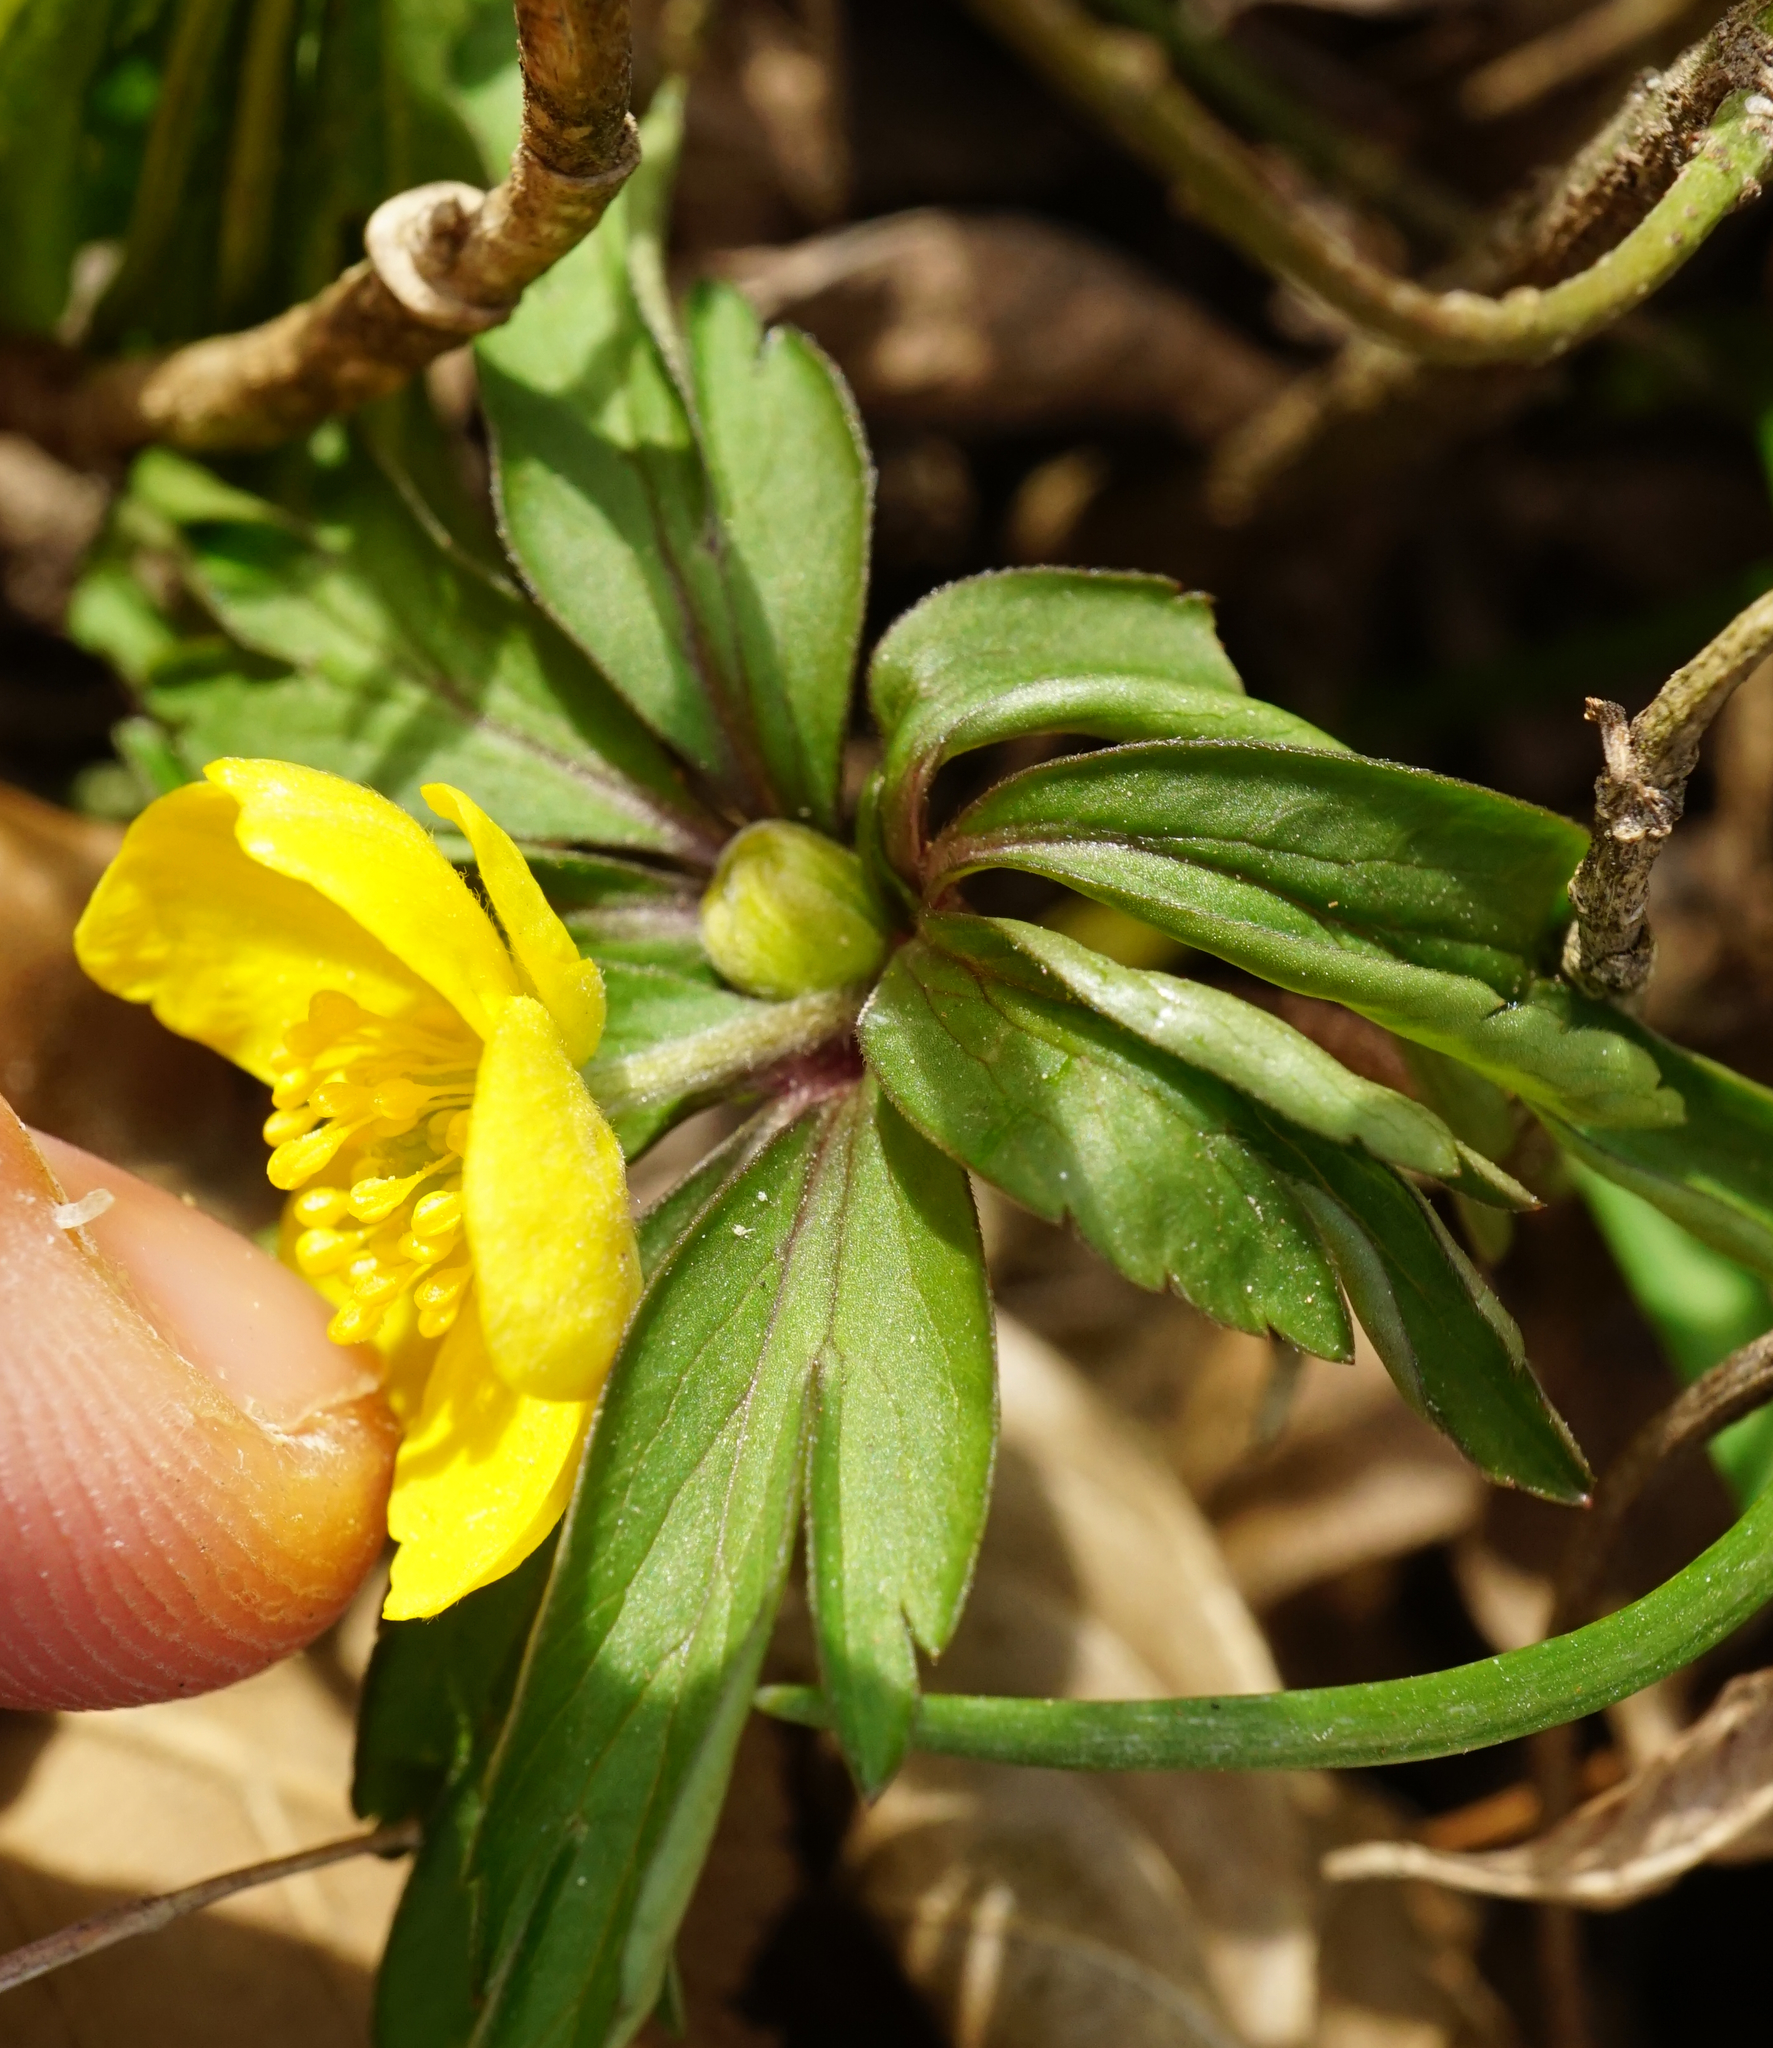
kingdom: Plantae
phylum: Tracheophyta
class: Magnoliopsida
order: Ranunculales
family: Ranunculaceae
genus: Anemone
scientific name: Anemone ranunculoides
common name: Yellow anemone
